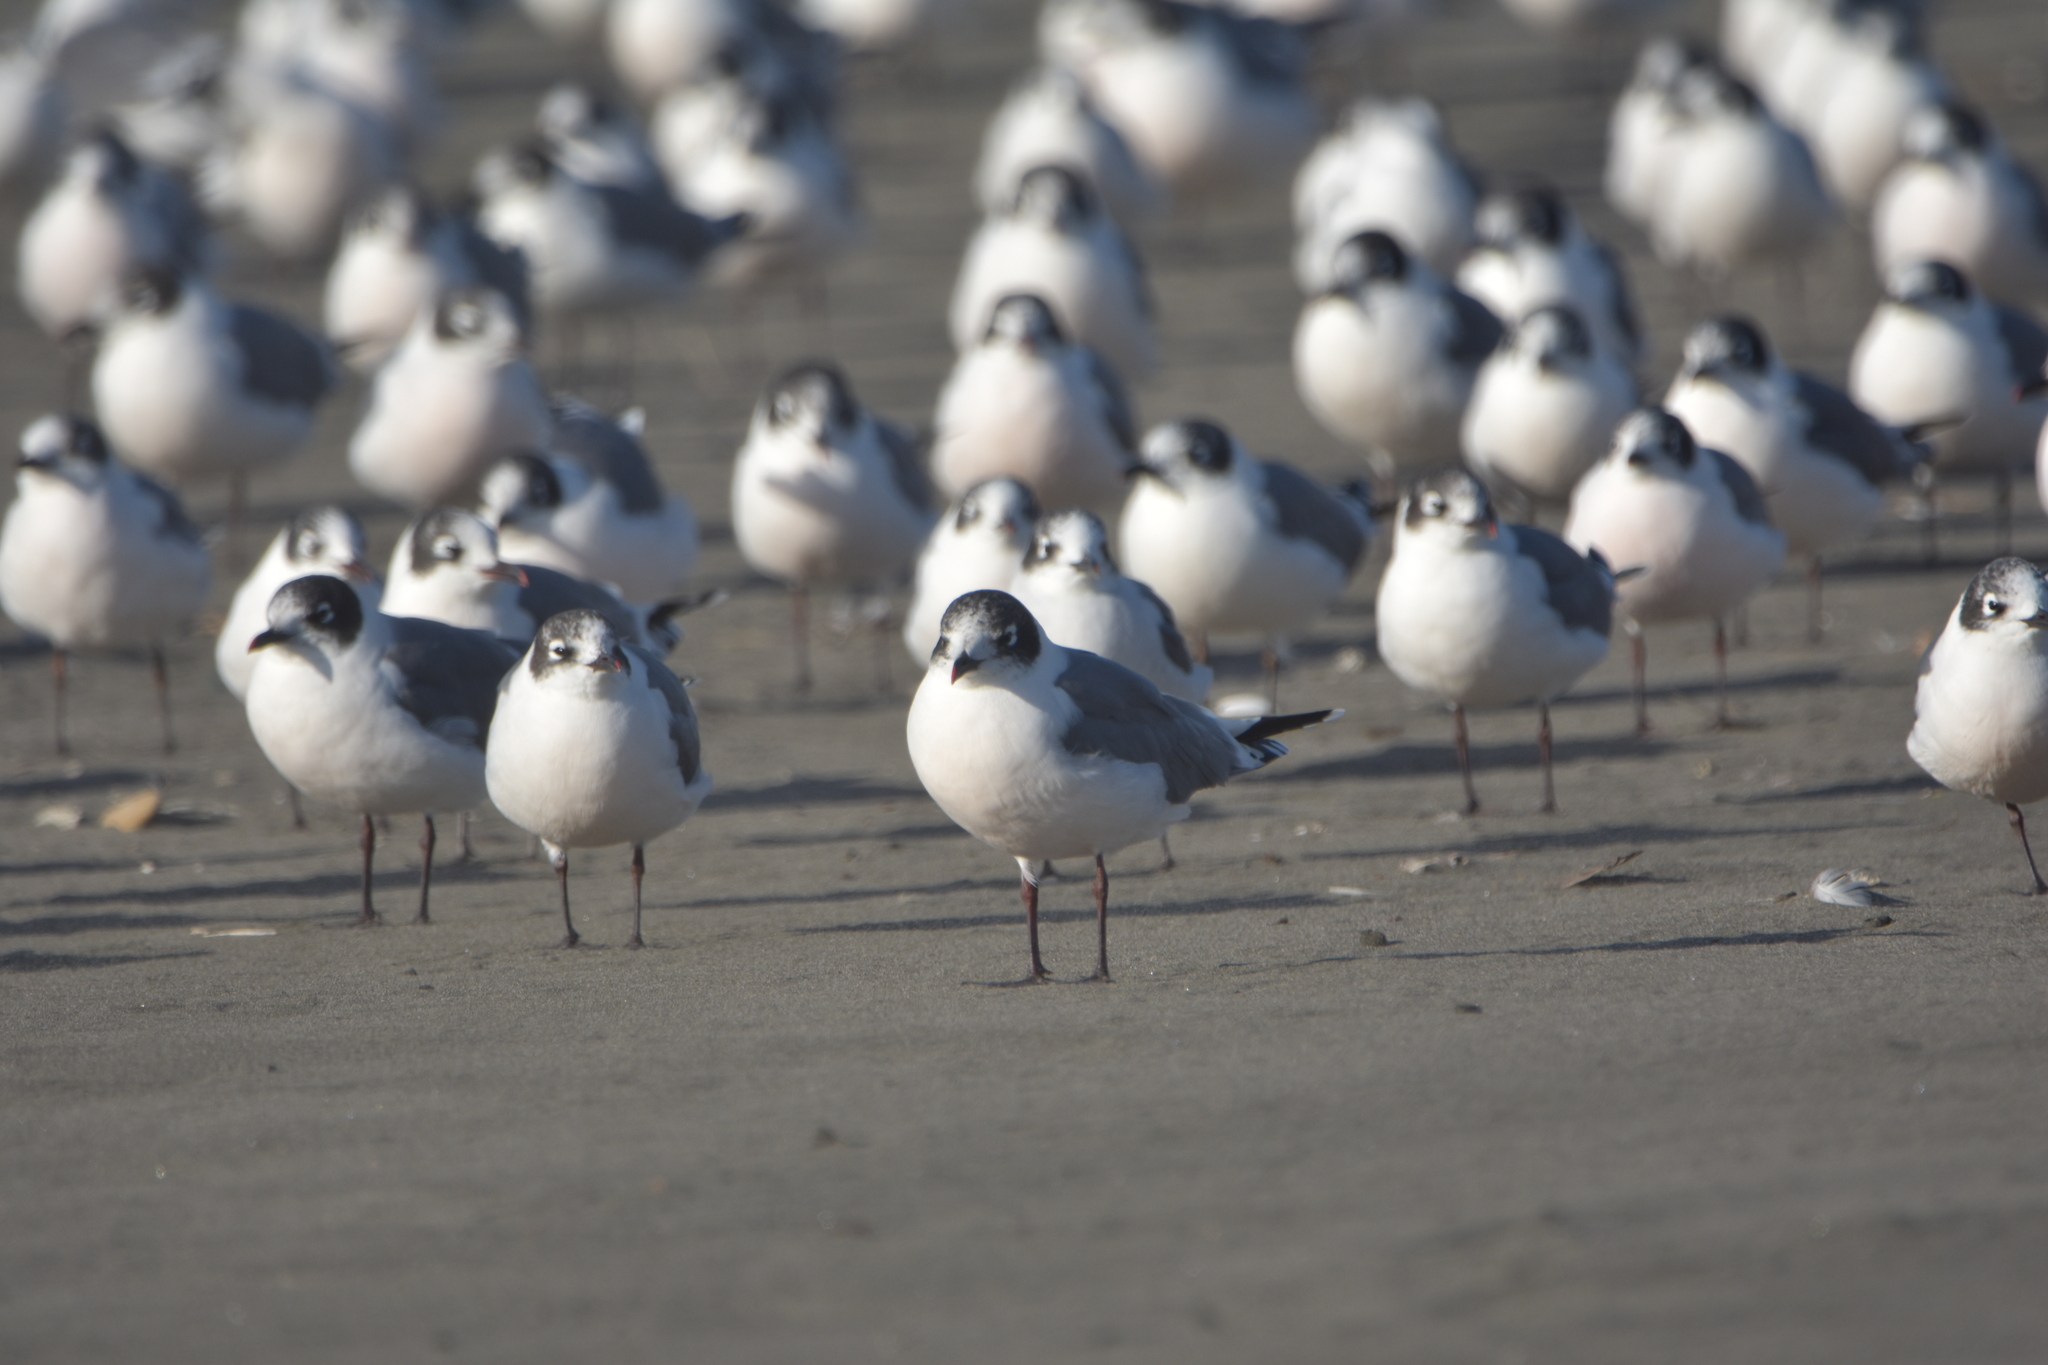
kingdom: Animalia
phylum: Chordata
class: Aves
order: Charadriiformes
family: Laridae
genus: Leucophaeus
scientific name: Leucophaeus pipixcan
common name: Franklin's gull
